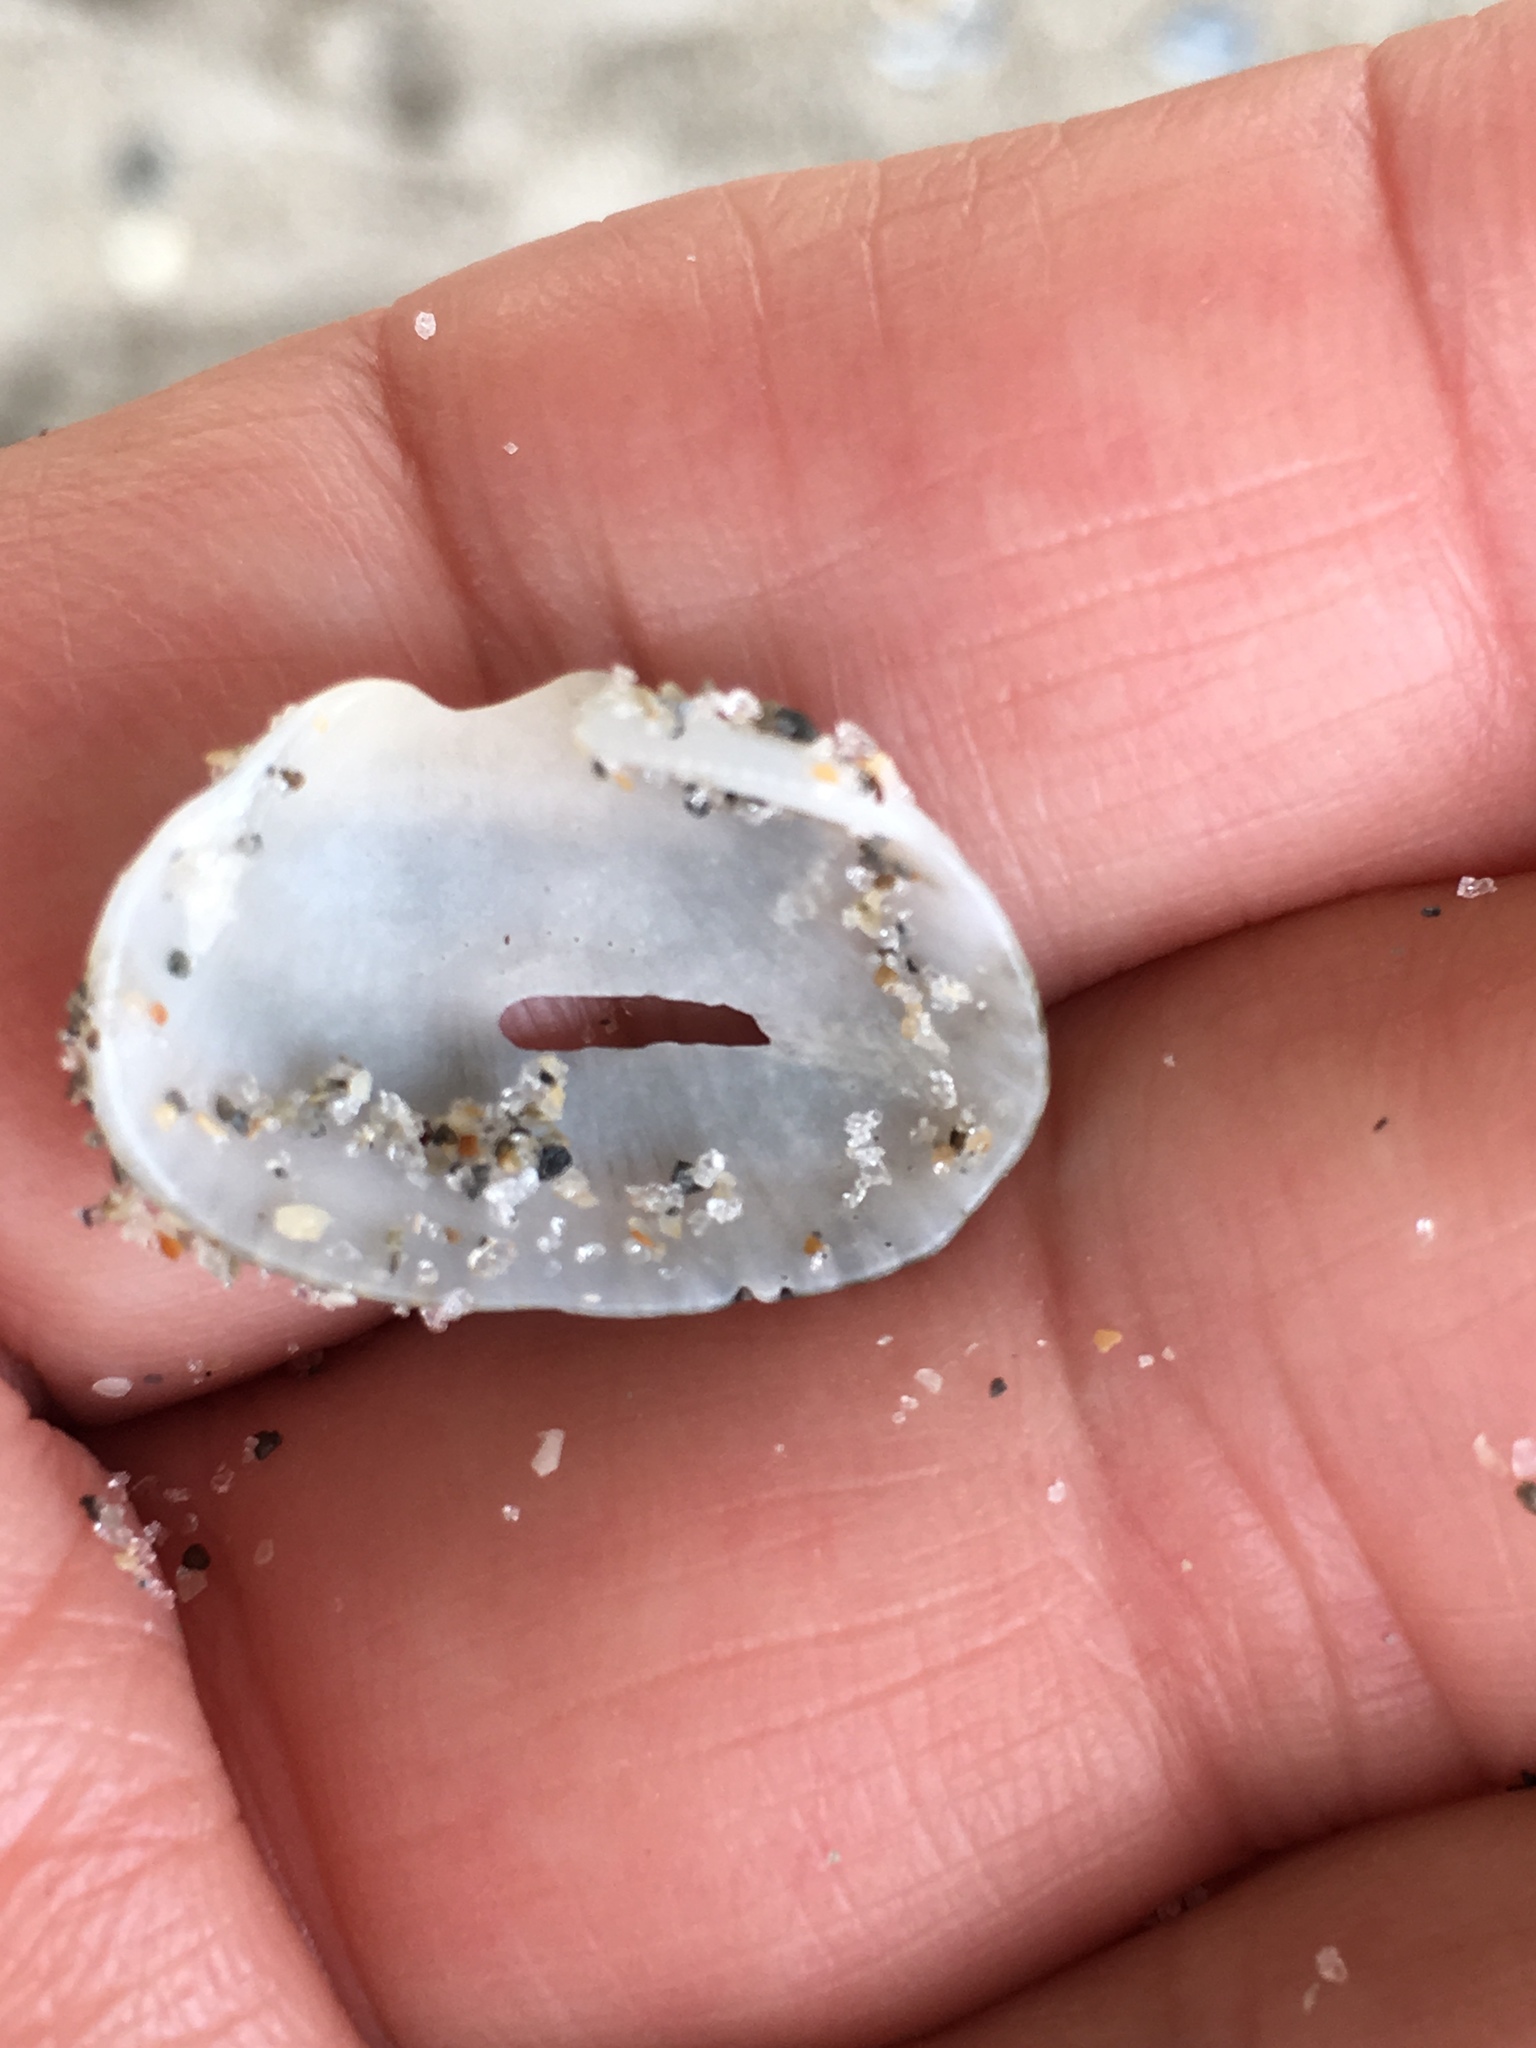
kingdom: Animalia
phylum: Mollusca
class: Bivalvia
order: Arcida
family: Arcidae
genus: Anadara
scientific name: Anadara transversa
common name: Transverse ark
